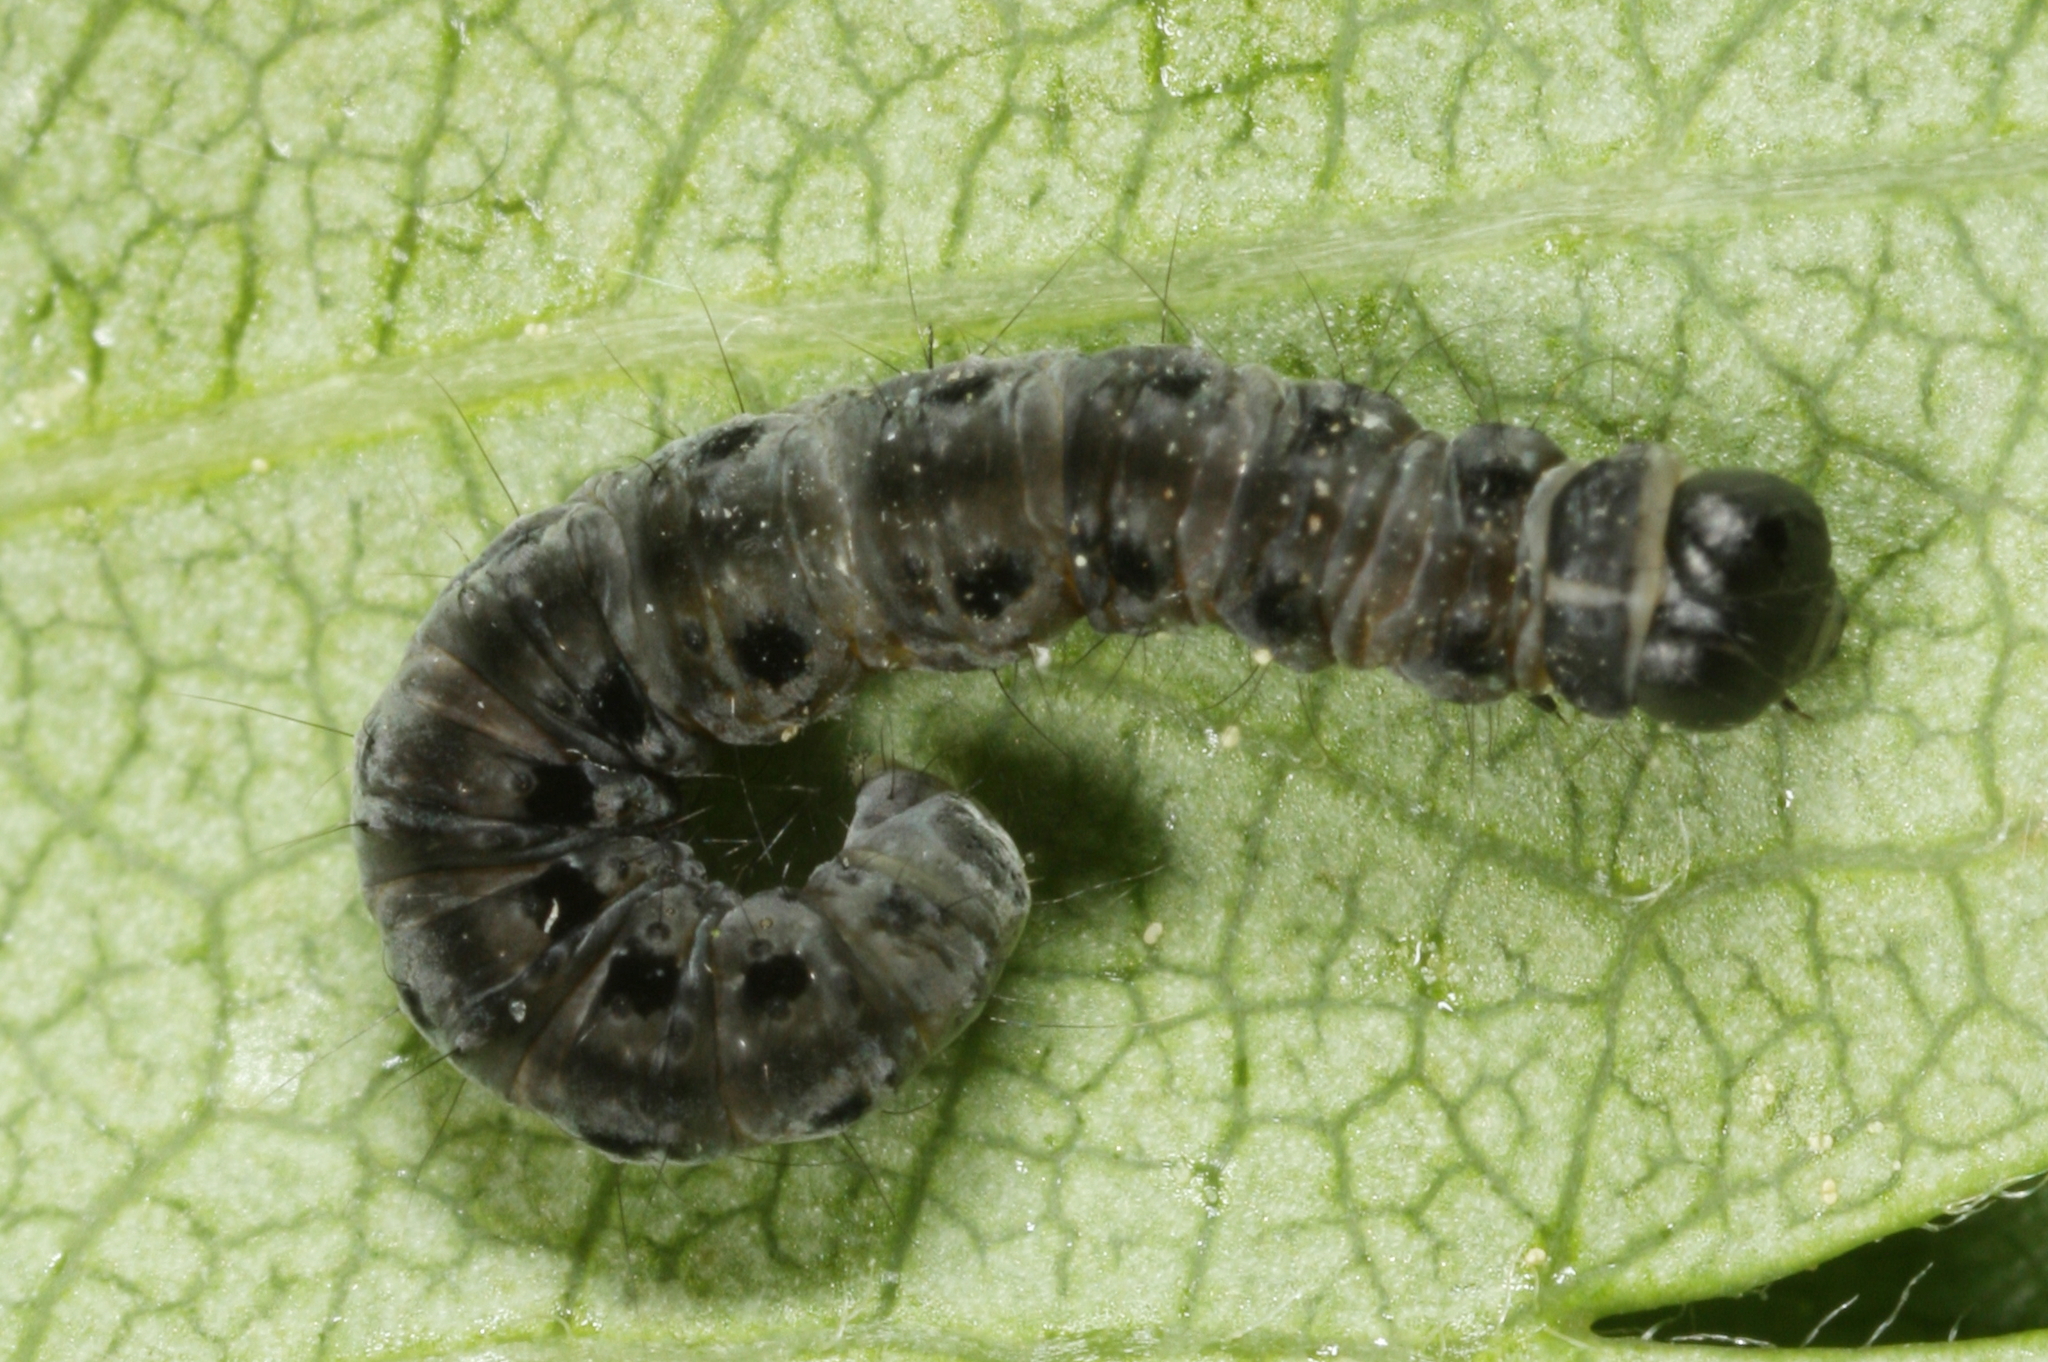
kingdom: Animalia
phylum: Arthropoda
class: Insecta
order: Lepidoptera
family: Yponomeutidae
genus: Yponomeuta
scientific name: Yponomeuta padella
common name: Orchard ermine
